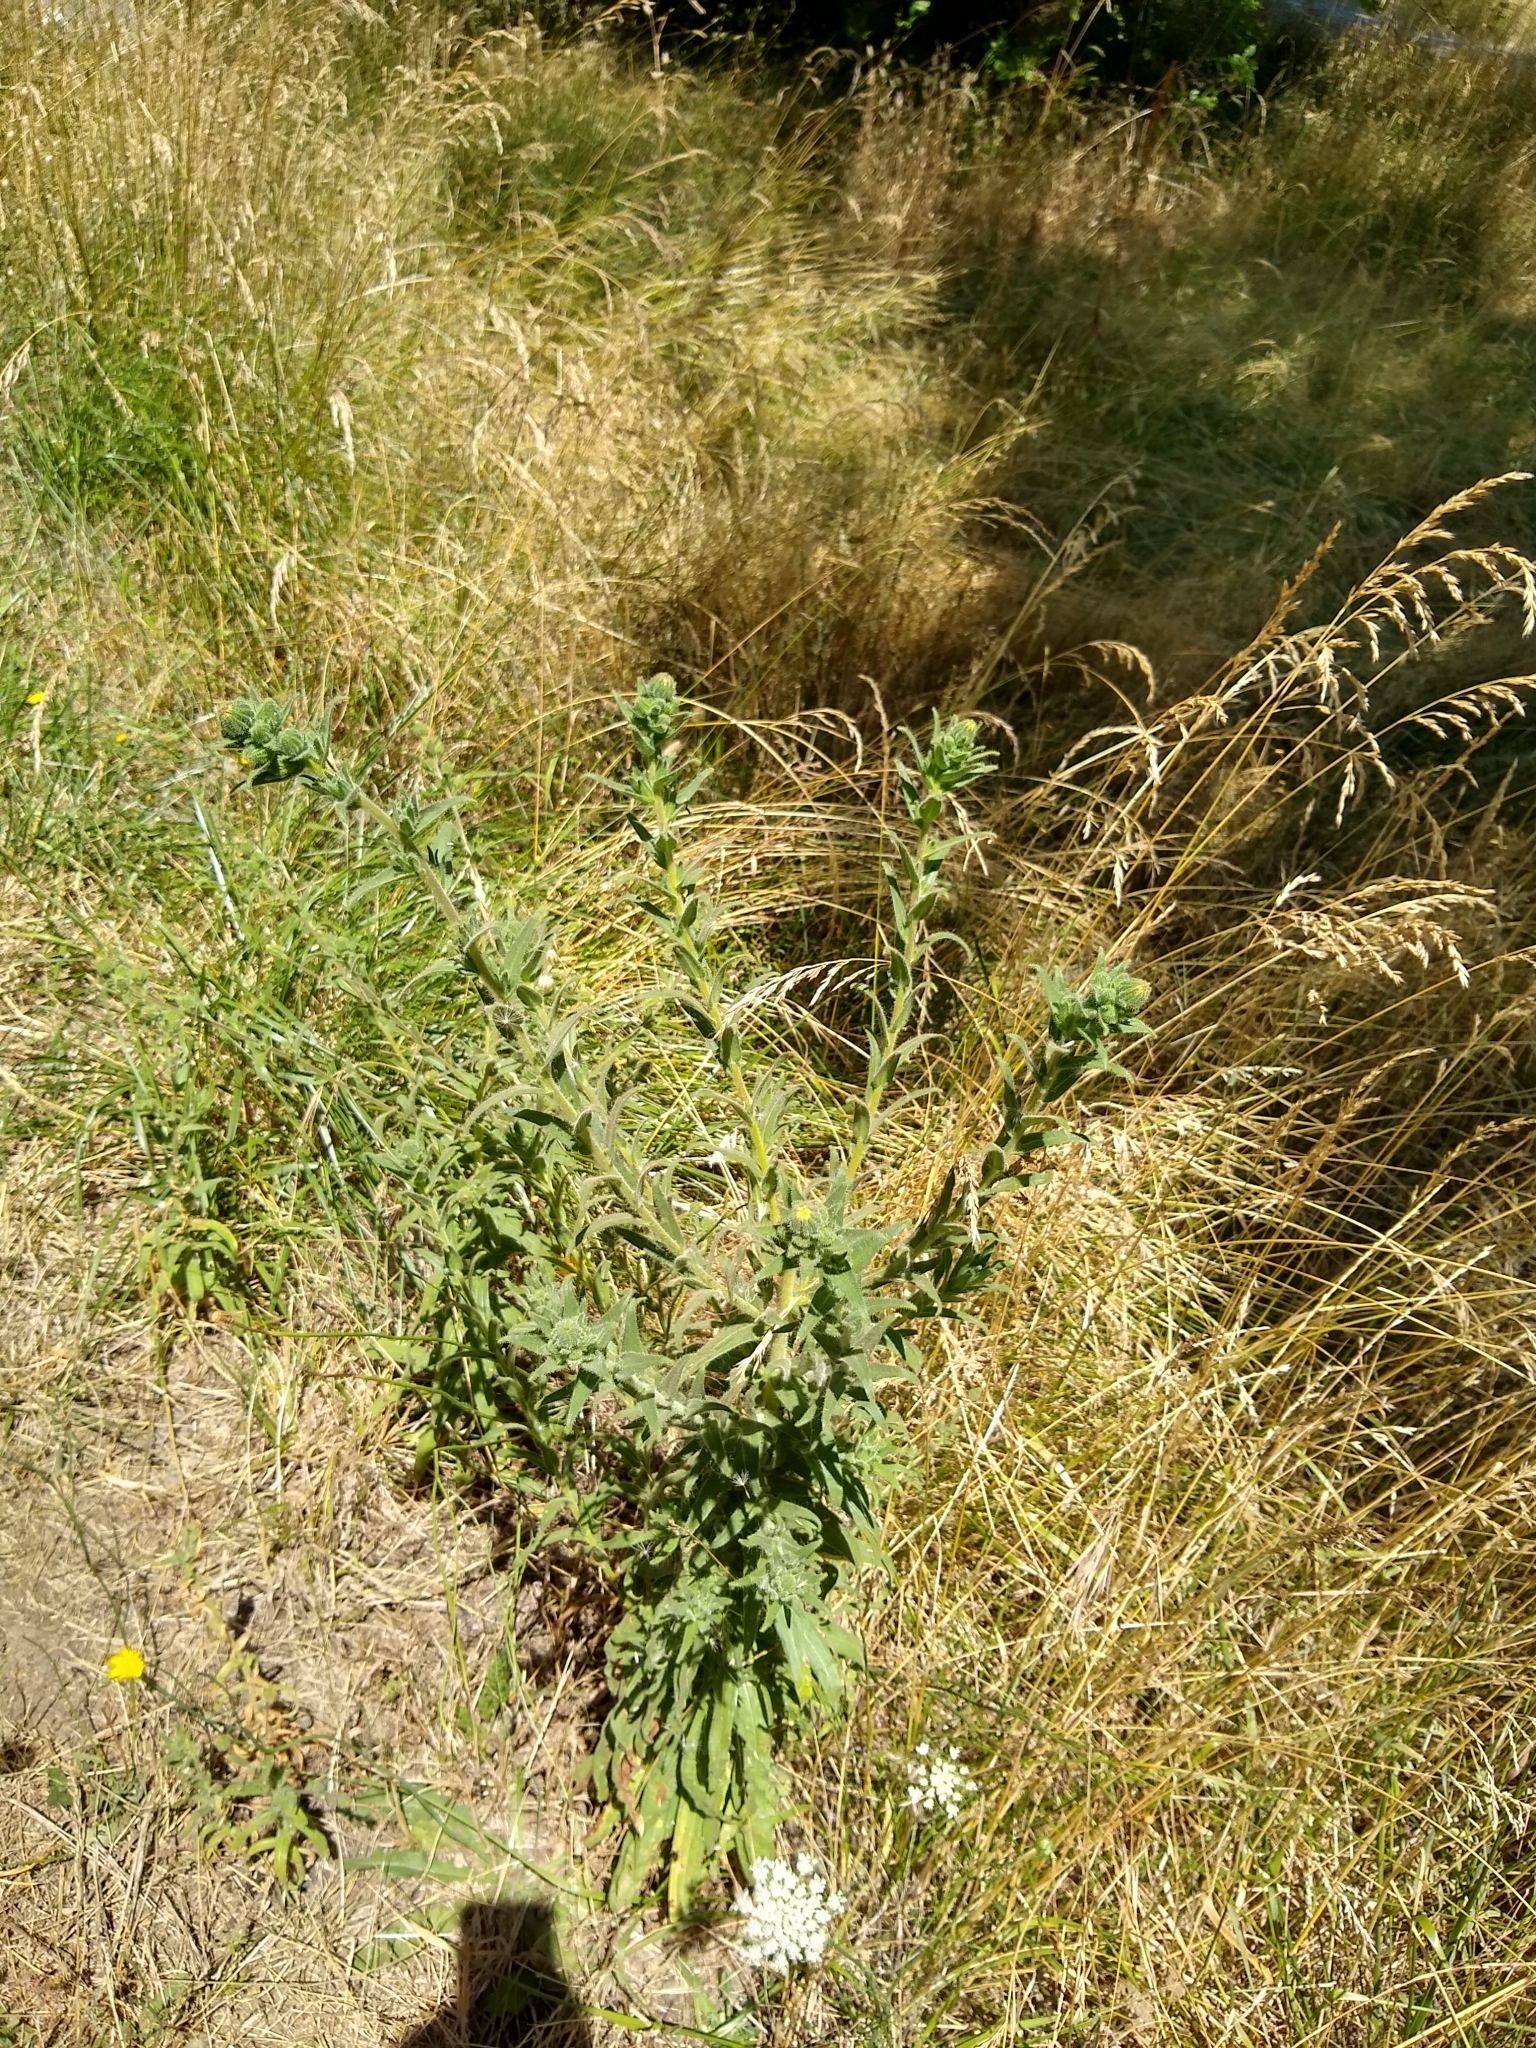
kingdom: Plantae
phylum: Tracheophyta
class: Magnoliopsida
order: Asterales
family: Asteraceae
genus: Madia
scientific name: Madia sativa
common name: Coast tarweed
